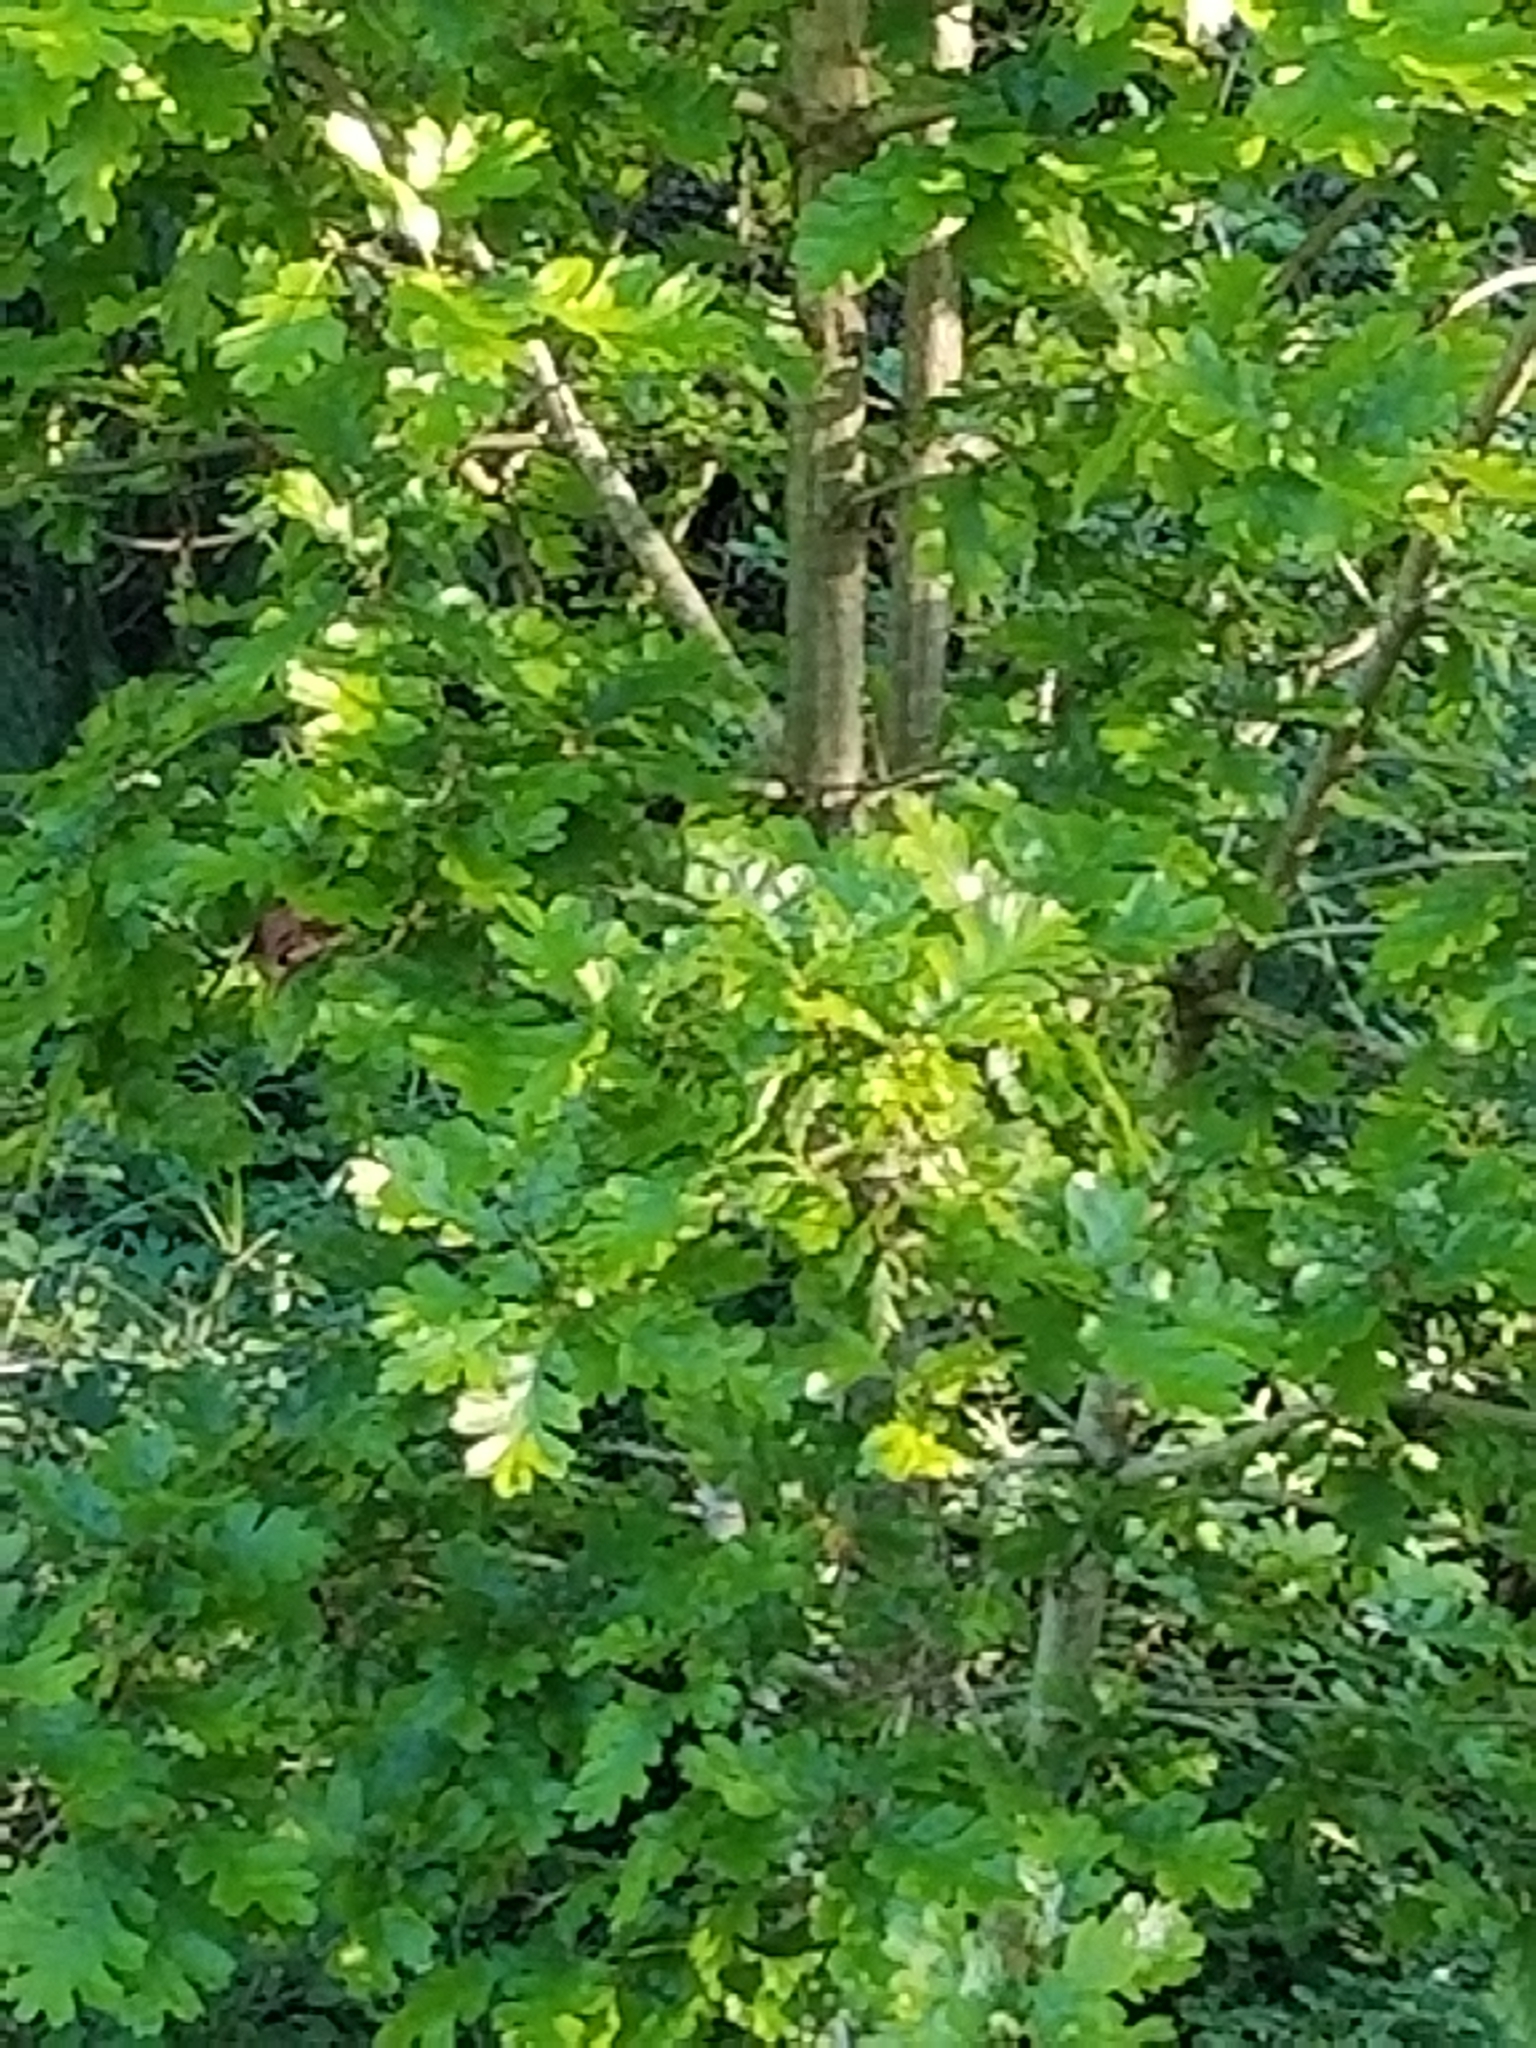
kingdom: Plantae
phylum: Tracheophyta
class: Magnoliopsida
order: Fagales
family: Fagaceae
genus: Quercus
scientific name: Quercus garryana
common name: Garry oak
